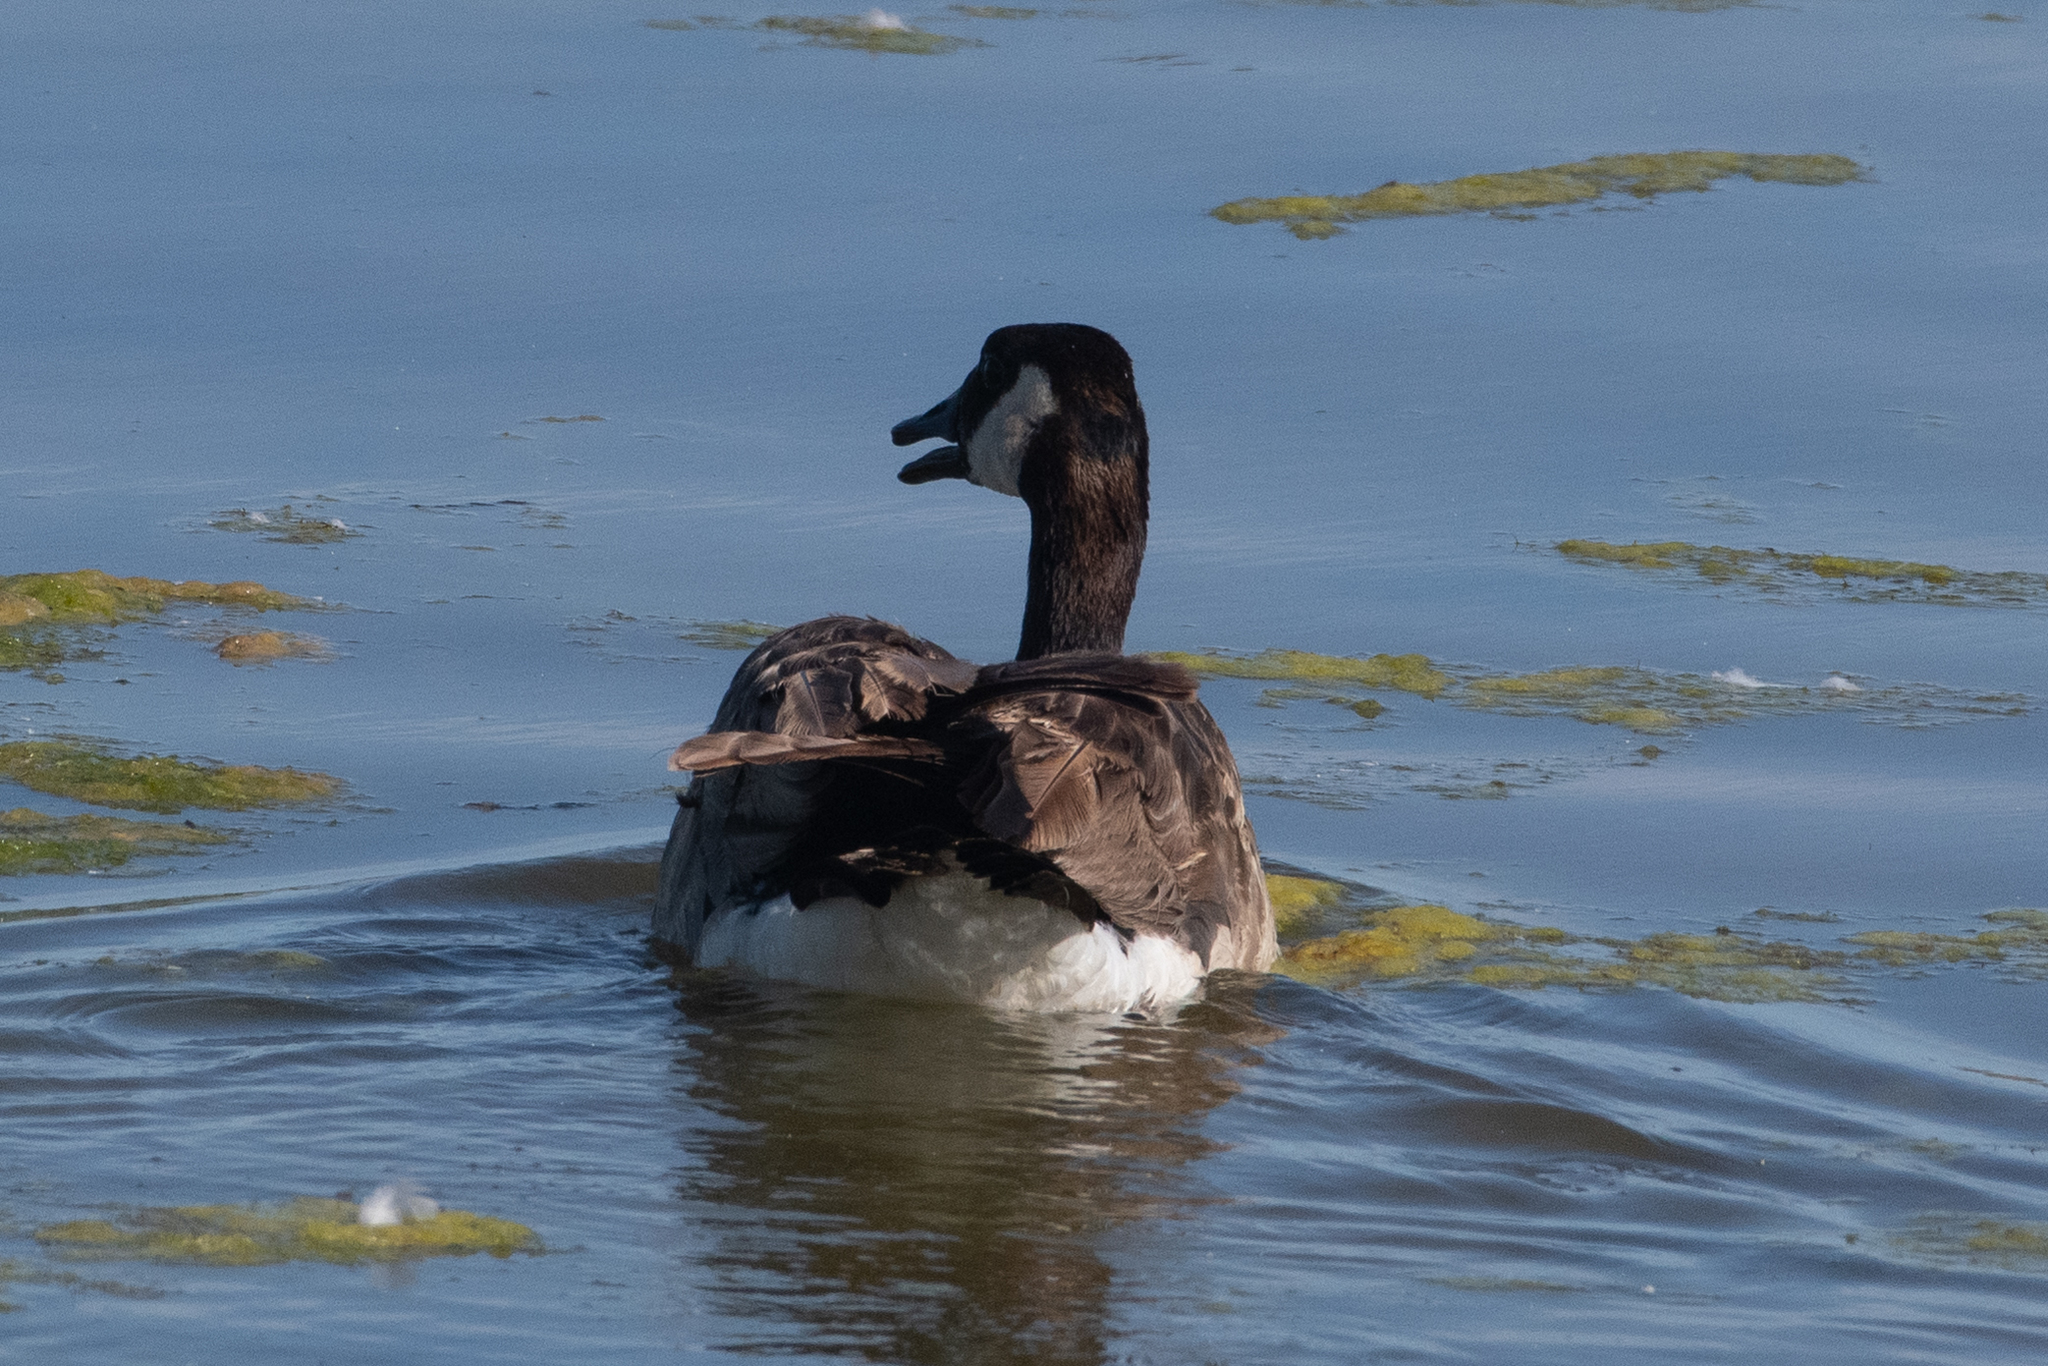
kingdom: Animalia
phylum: Chordata
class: Aves
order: Anseriformes
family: Anatidae
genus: Branta
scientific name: Branta canadensis
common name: Canada goose
